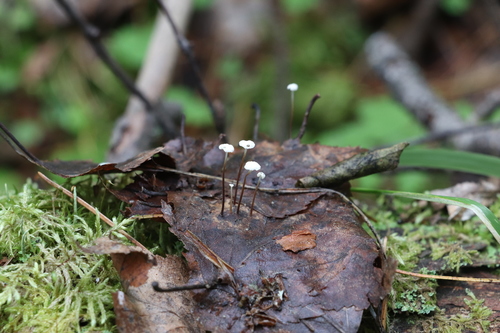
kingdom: Fungi
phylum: Basidiomycota
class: Agaricomycetes
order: Agaricales
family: Marasmiaceae
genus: Marasmius
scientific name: Marasmius epiphyllus
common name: Leaf parachute
